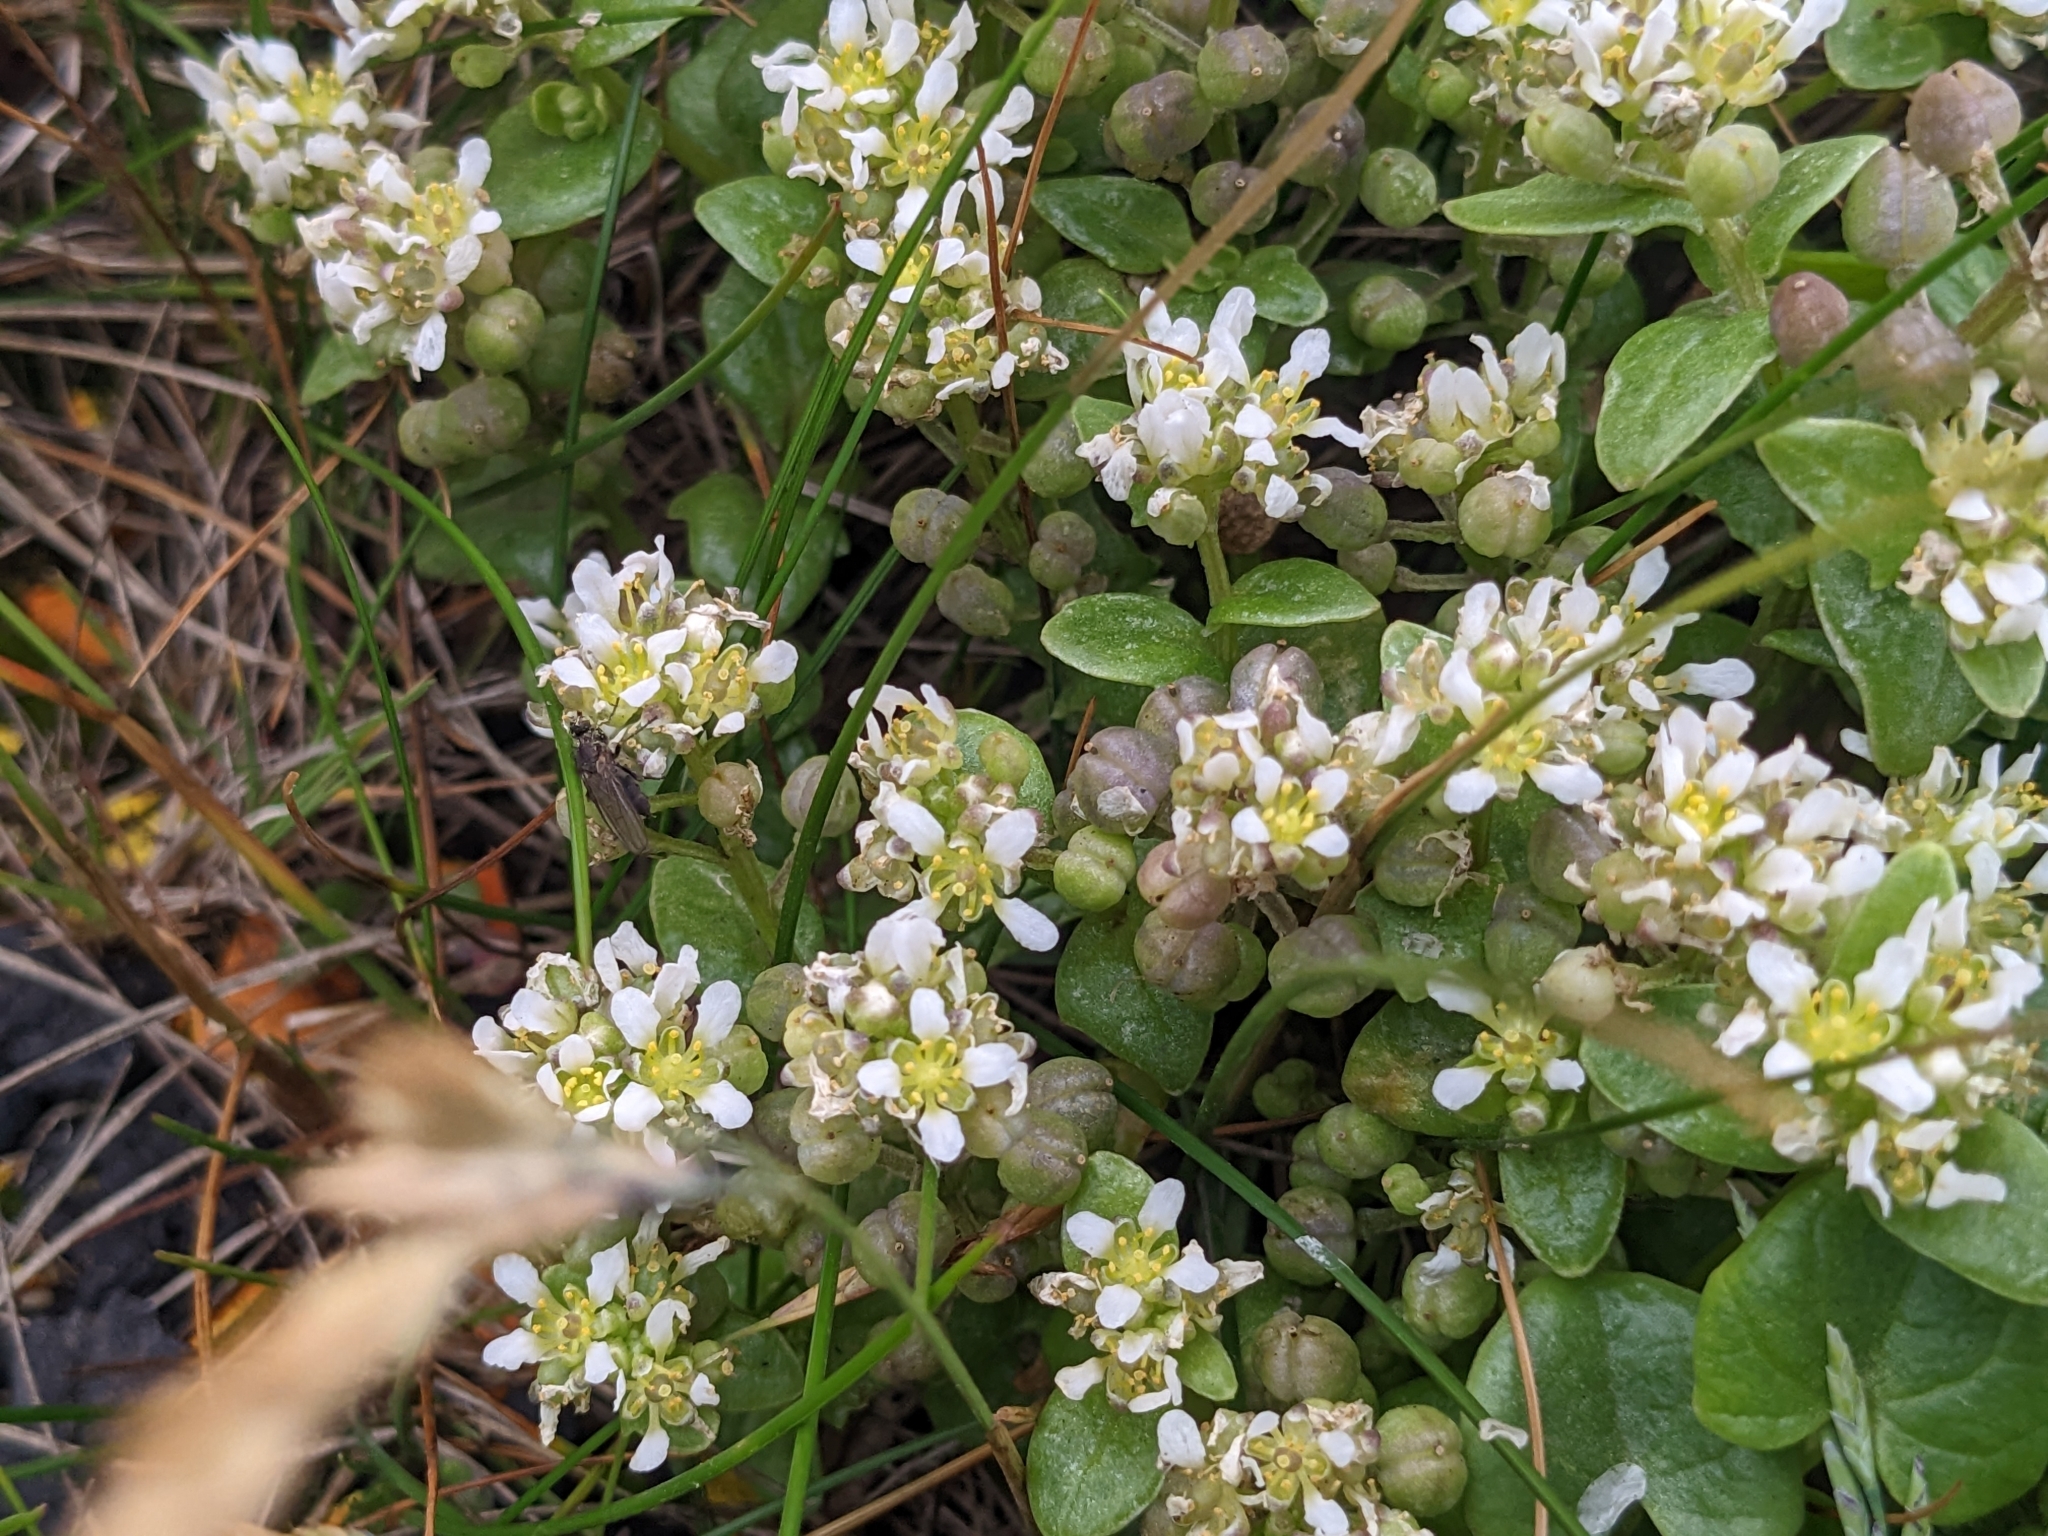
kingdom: Plantae
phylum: Tracheophyta
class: Magnoliopsida
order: Brassicales
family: Brassicaceae
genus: Cochlearia
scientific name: Cochlearia officinalis
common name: Scurvy-grass
